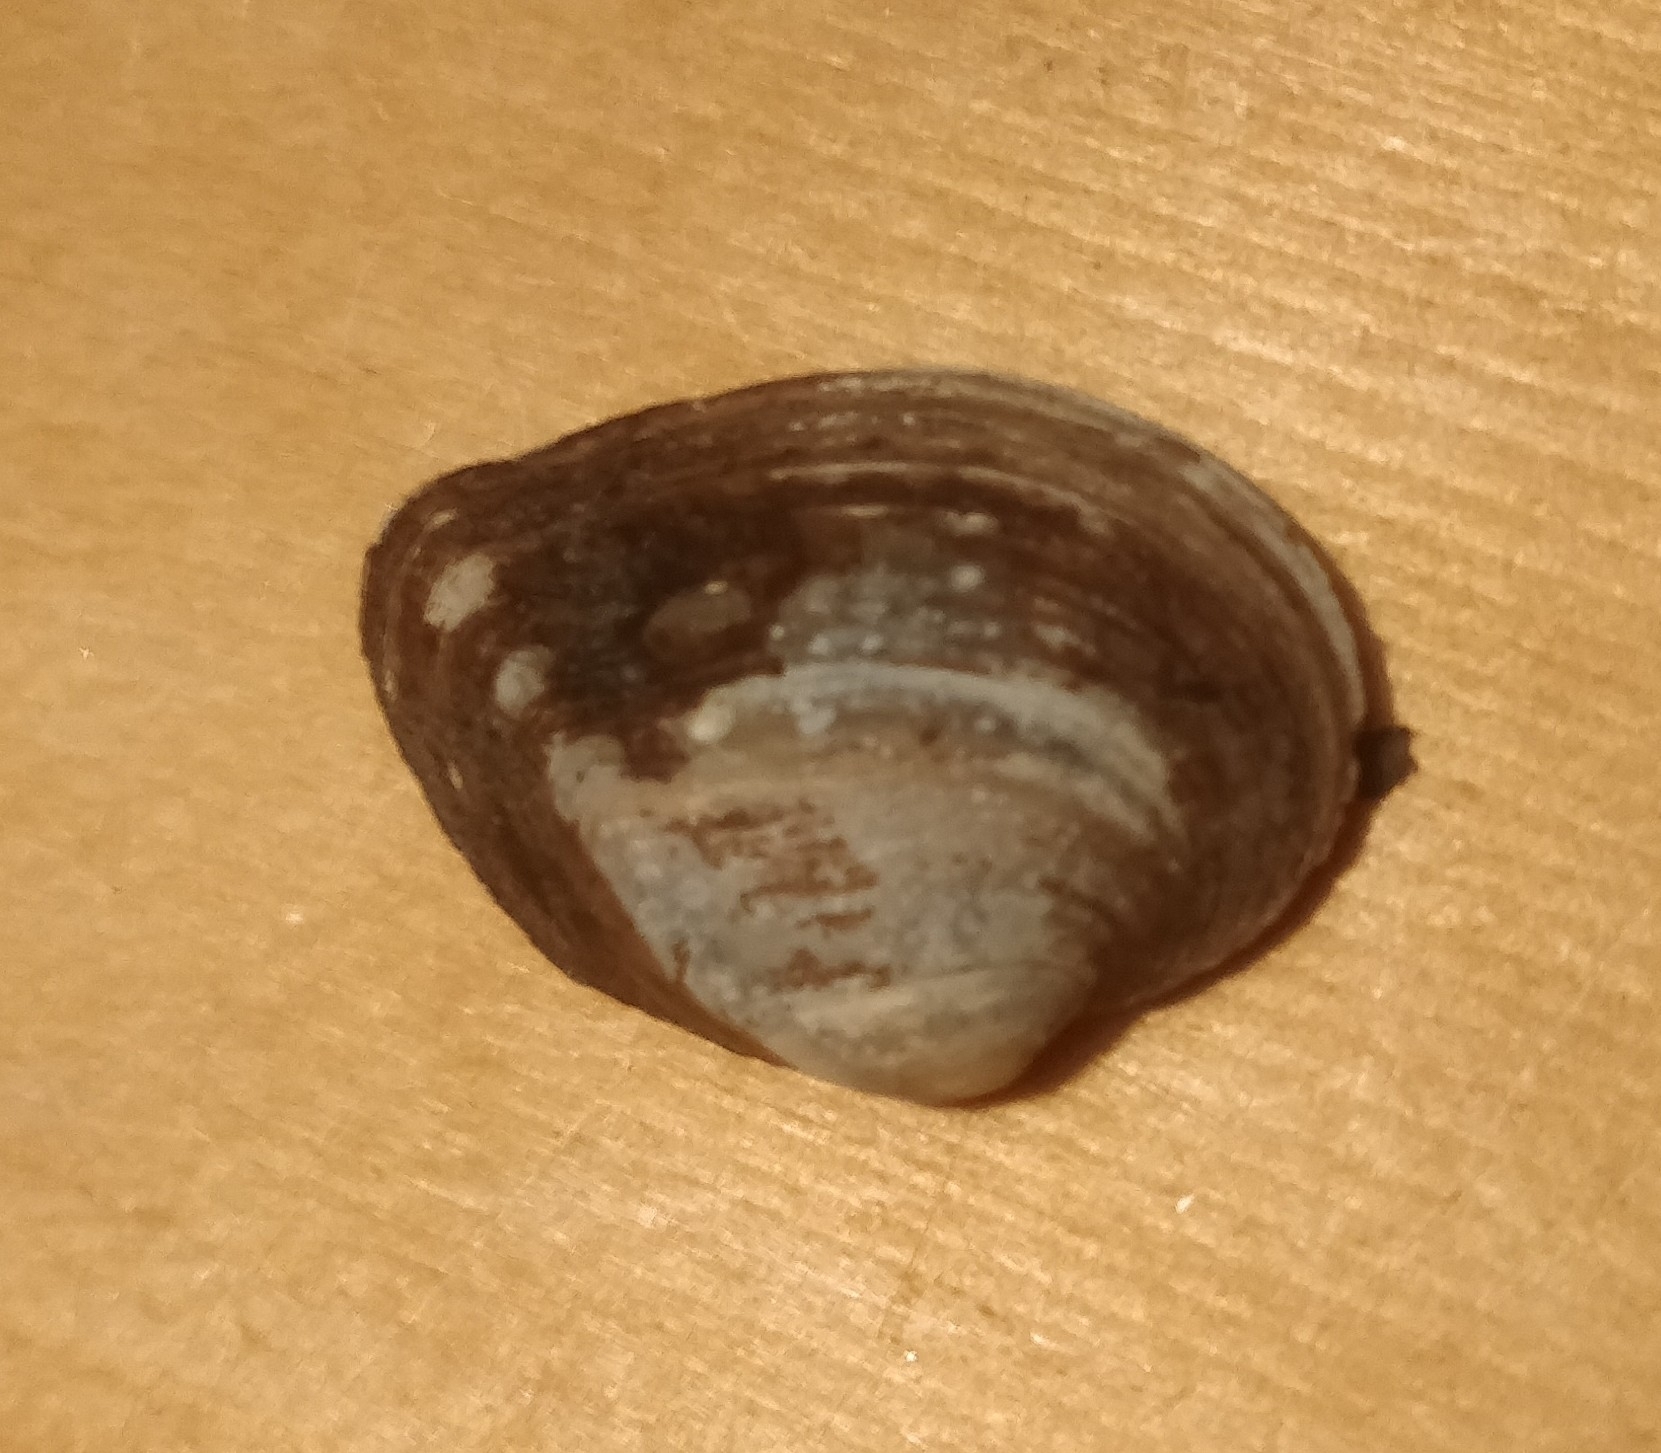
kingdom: Animalia
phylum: Mollusca
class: Bivalvia
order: Unionida
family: Unionidae
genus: Truncilla
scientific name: Truncilla truncata
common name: Deertoe
